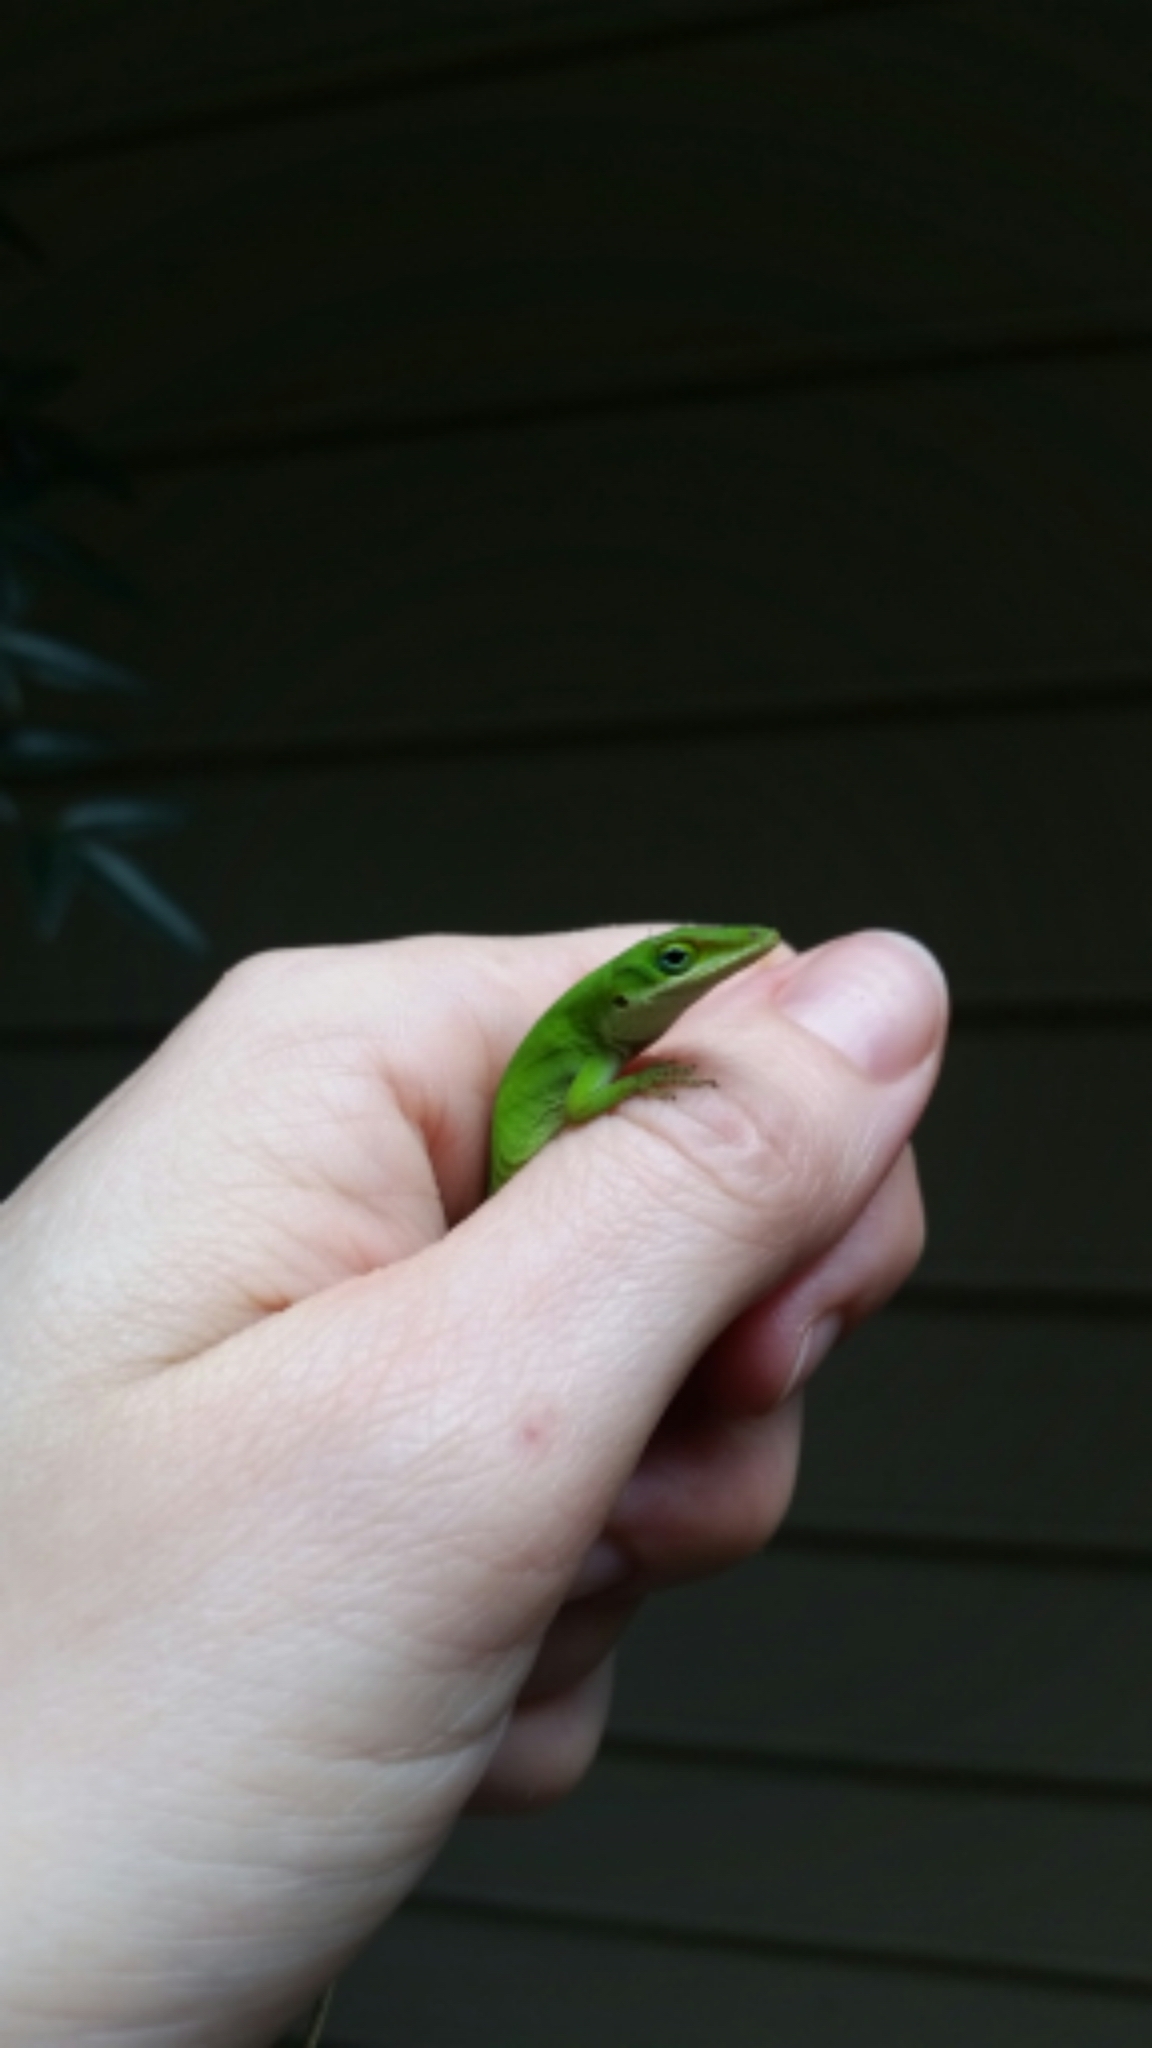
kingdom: Animalia
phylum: Chordata
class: Squamata
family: Dactyloidae
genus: Anolis
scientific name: Anolis carolinensis
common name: Green anole
